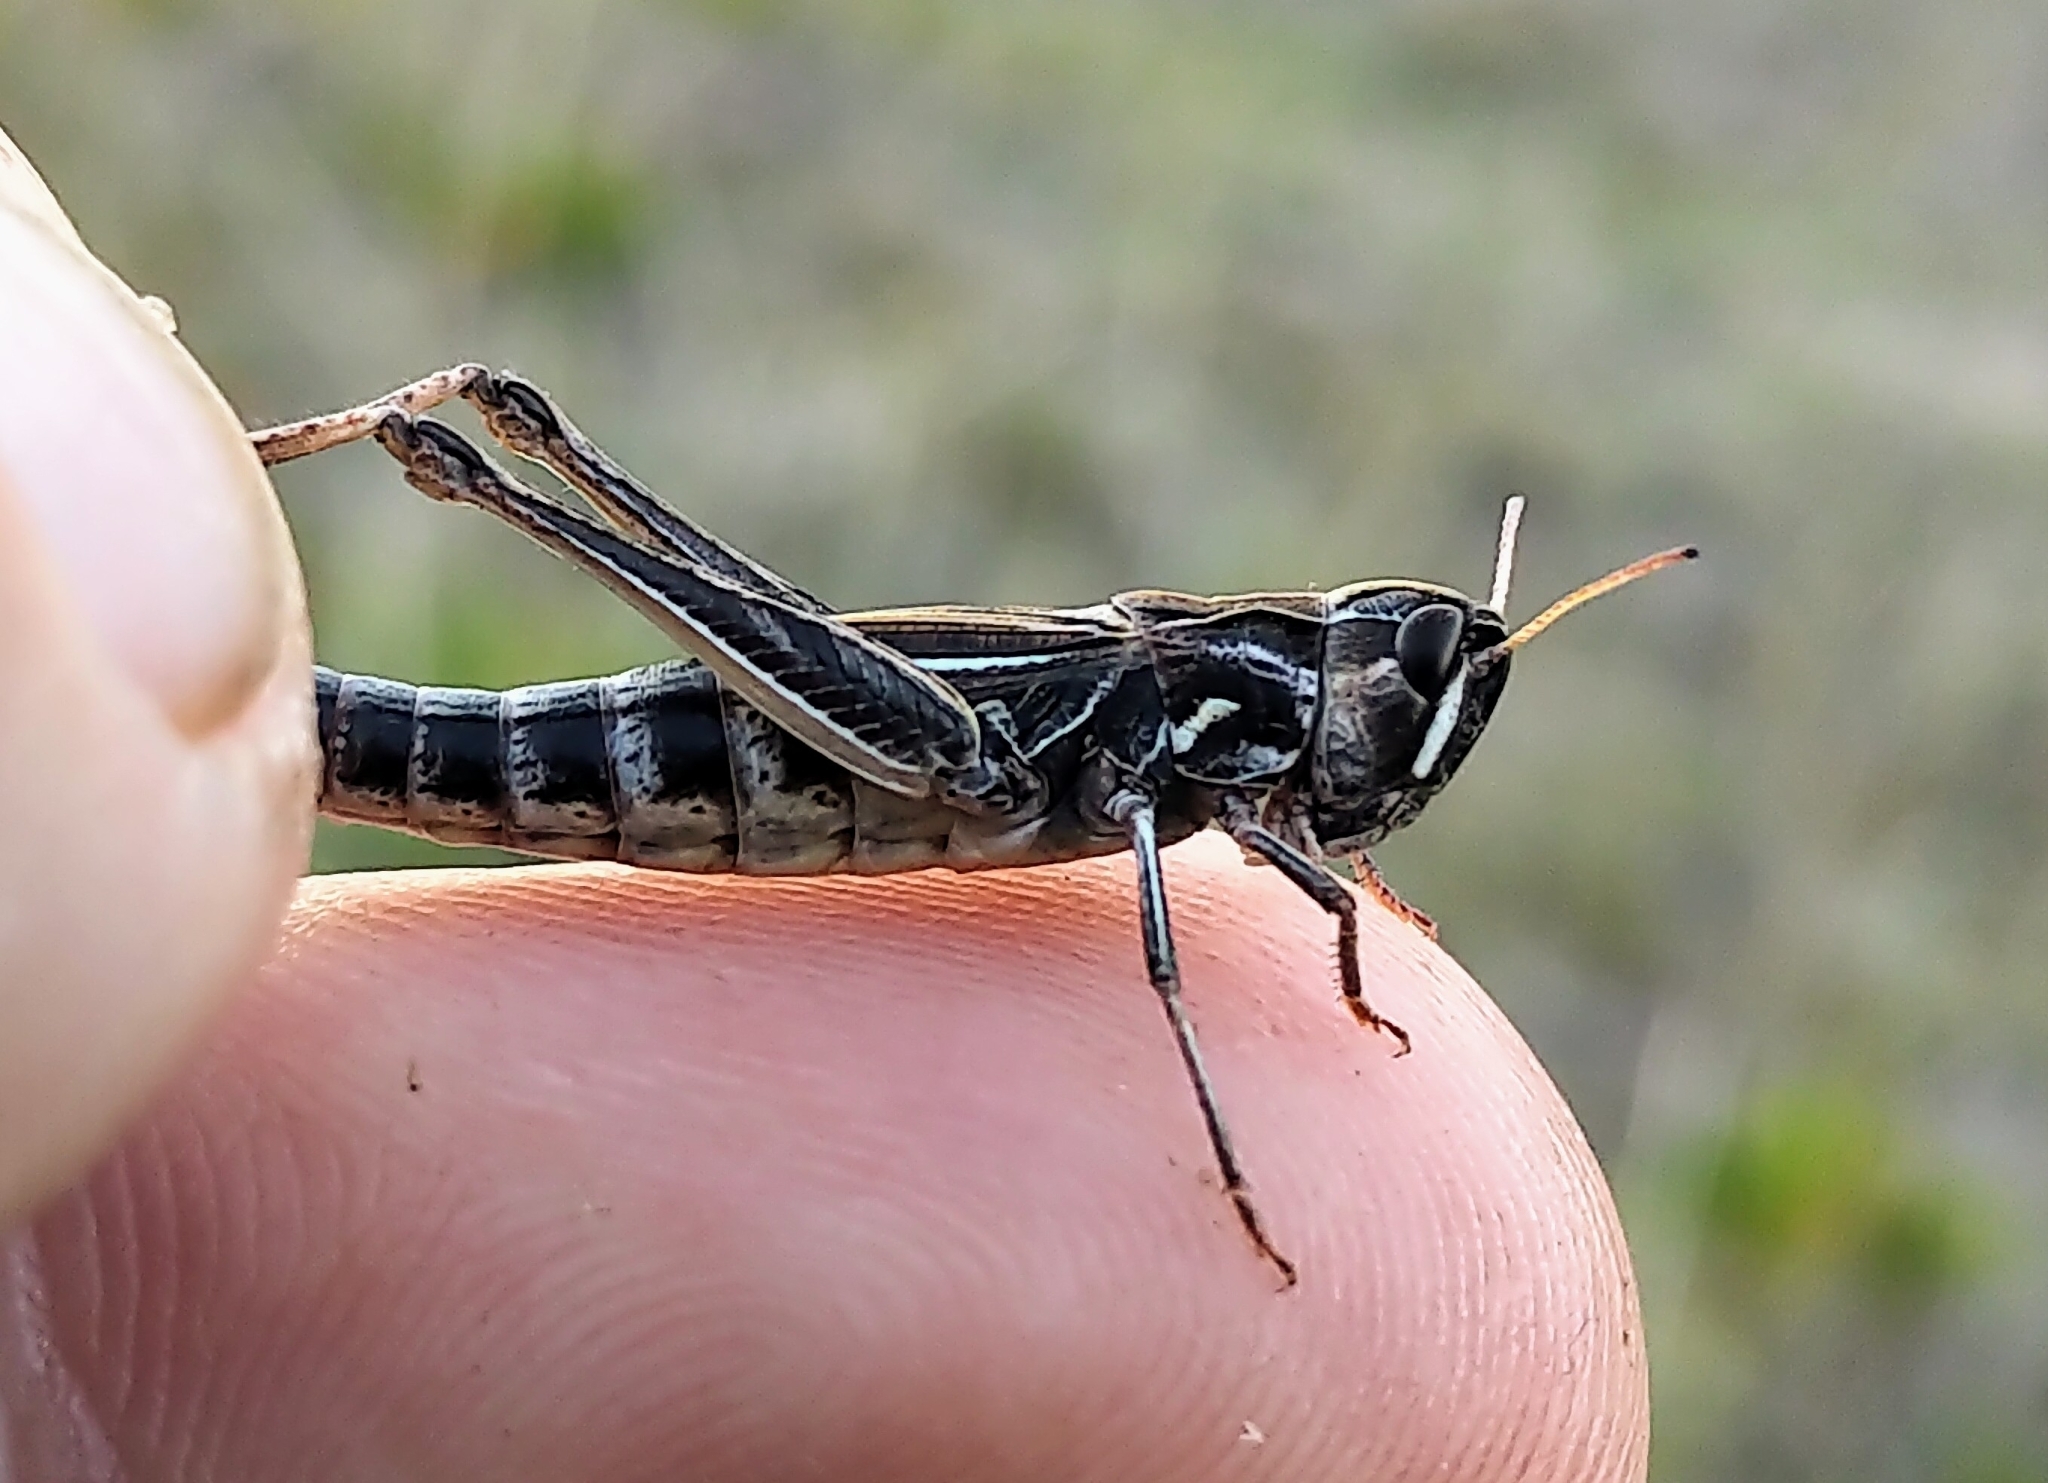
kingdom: Animalia
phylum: Arthropoda
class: Insecta
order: Orthoptera
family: Acrididae
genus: Aeropedellus
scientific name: Aeropedellus clavatus
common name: Clubhorned grasshopper
